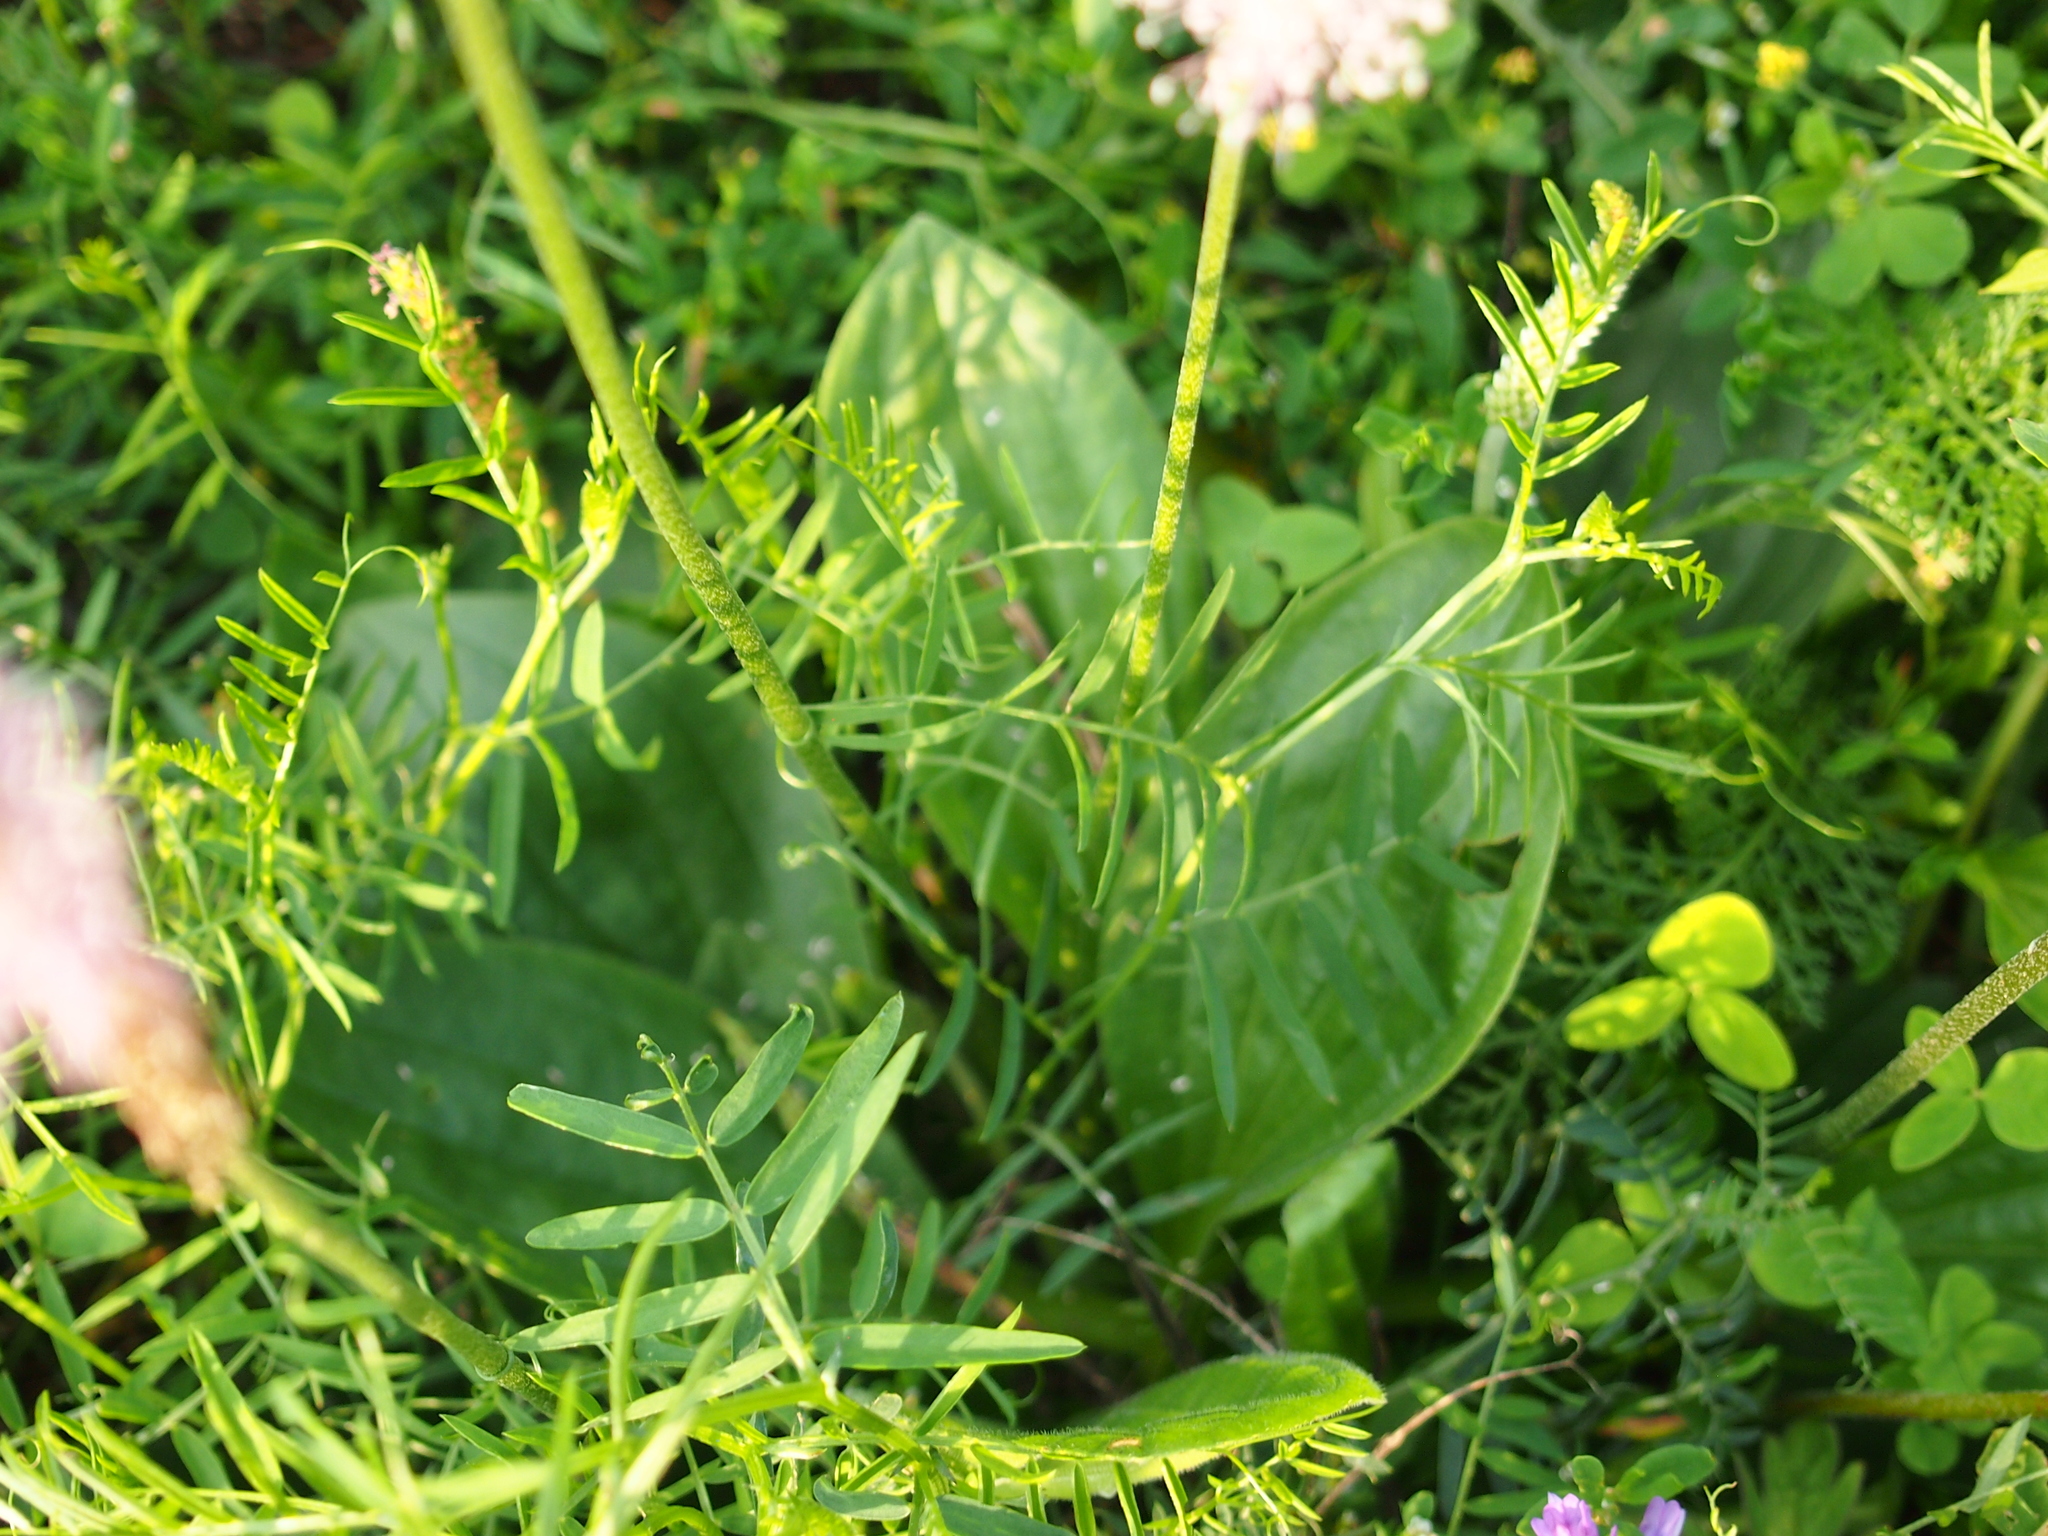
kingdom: Plantae
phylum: Tracheophyta
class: Magnoliopsida
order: Lamiales
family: Plantaginaceae
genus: Plantago
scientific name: Plantago media
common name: Hoary plantain
